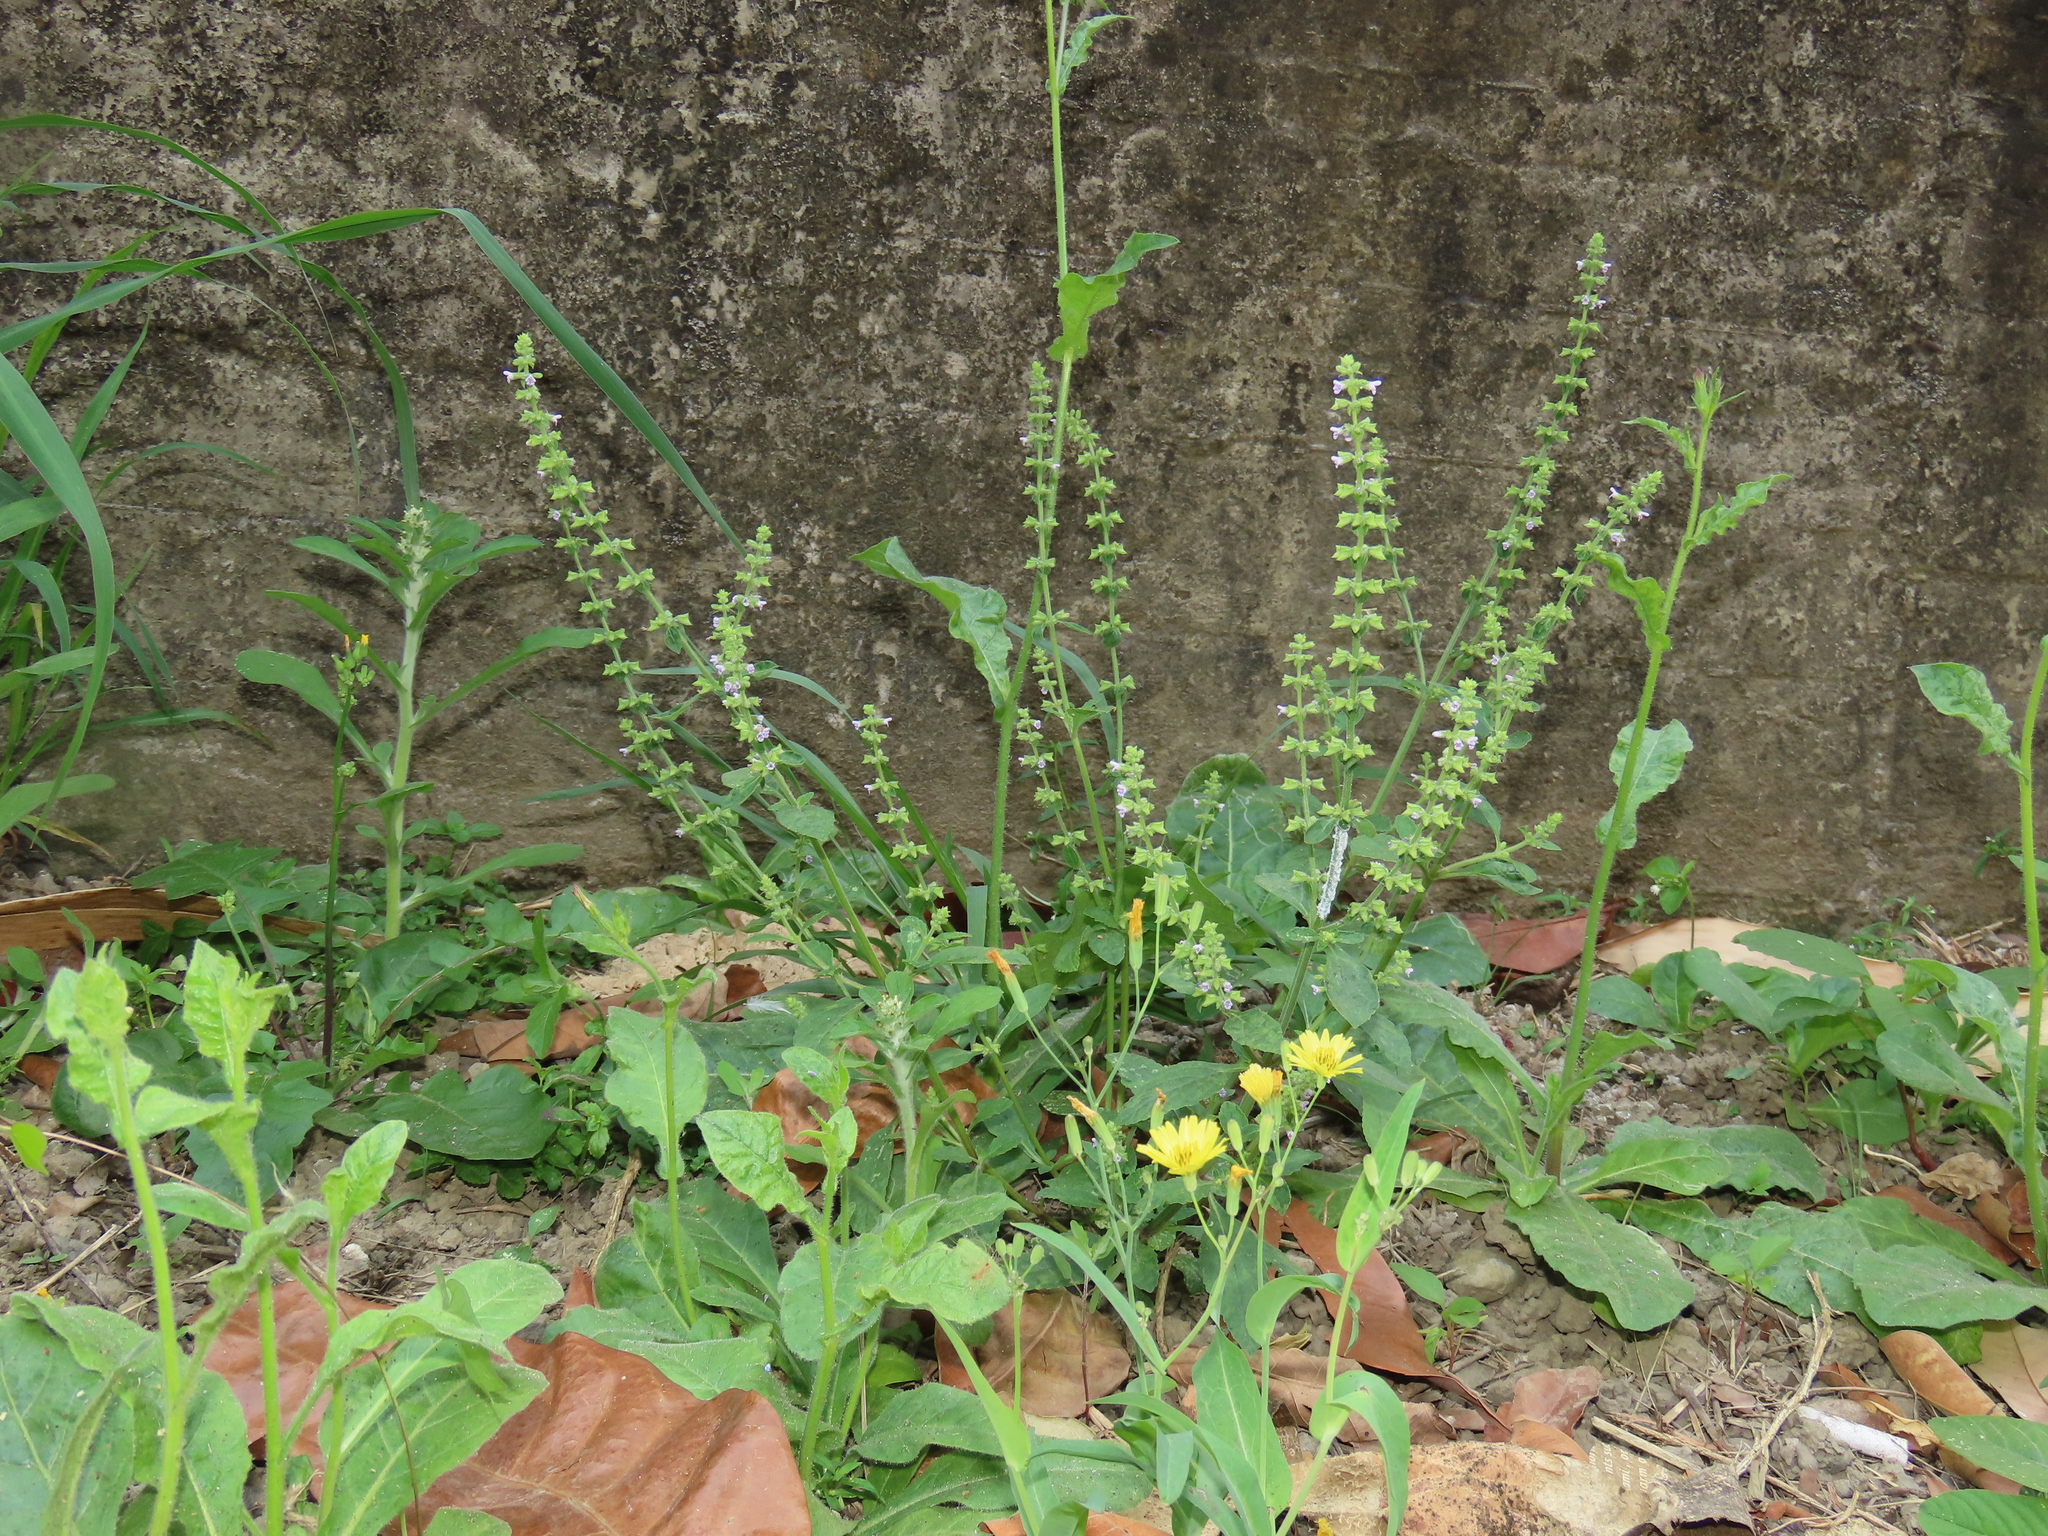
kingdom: Plantae
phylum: Tracheophyta
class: Magnoliopsida
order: Lamiales
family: Lamiaceae
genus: Salvia
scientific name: Salvia plebeia
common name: Australian sage
